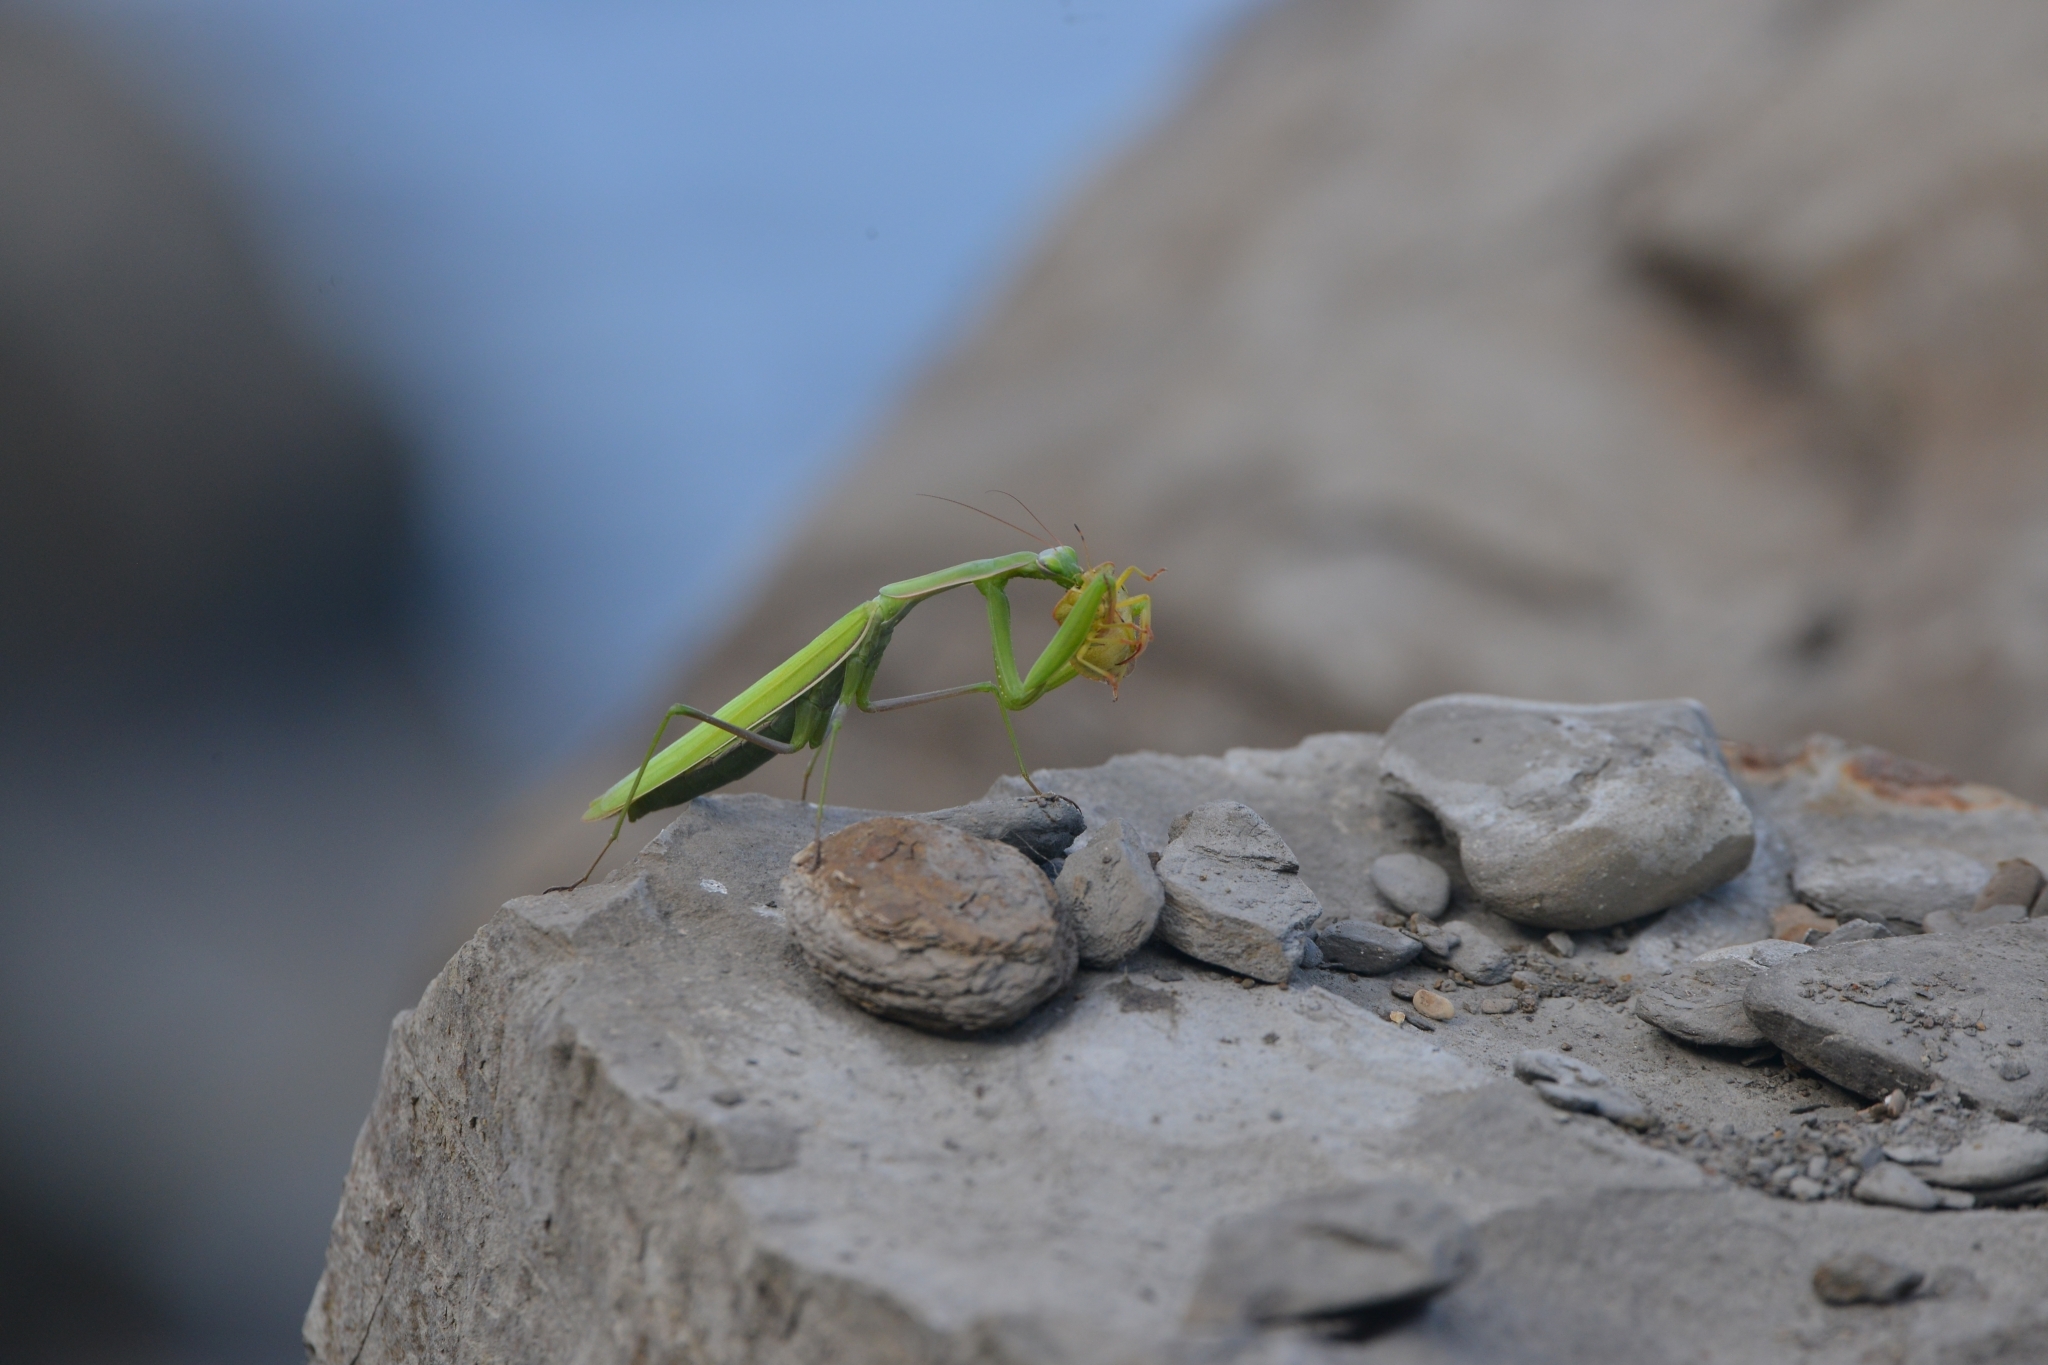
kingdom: Animalia
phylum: Arthropoda
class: Insecta
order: Mantodea
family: Mantidae
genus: Mantis
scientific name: Mantis religiosa
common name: Praying mantis
